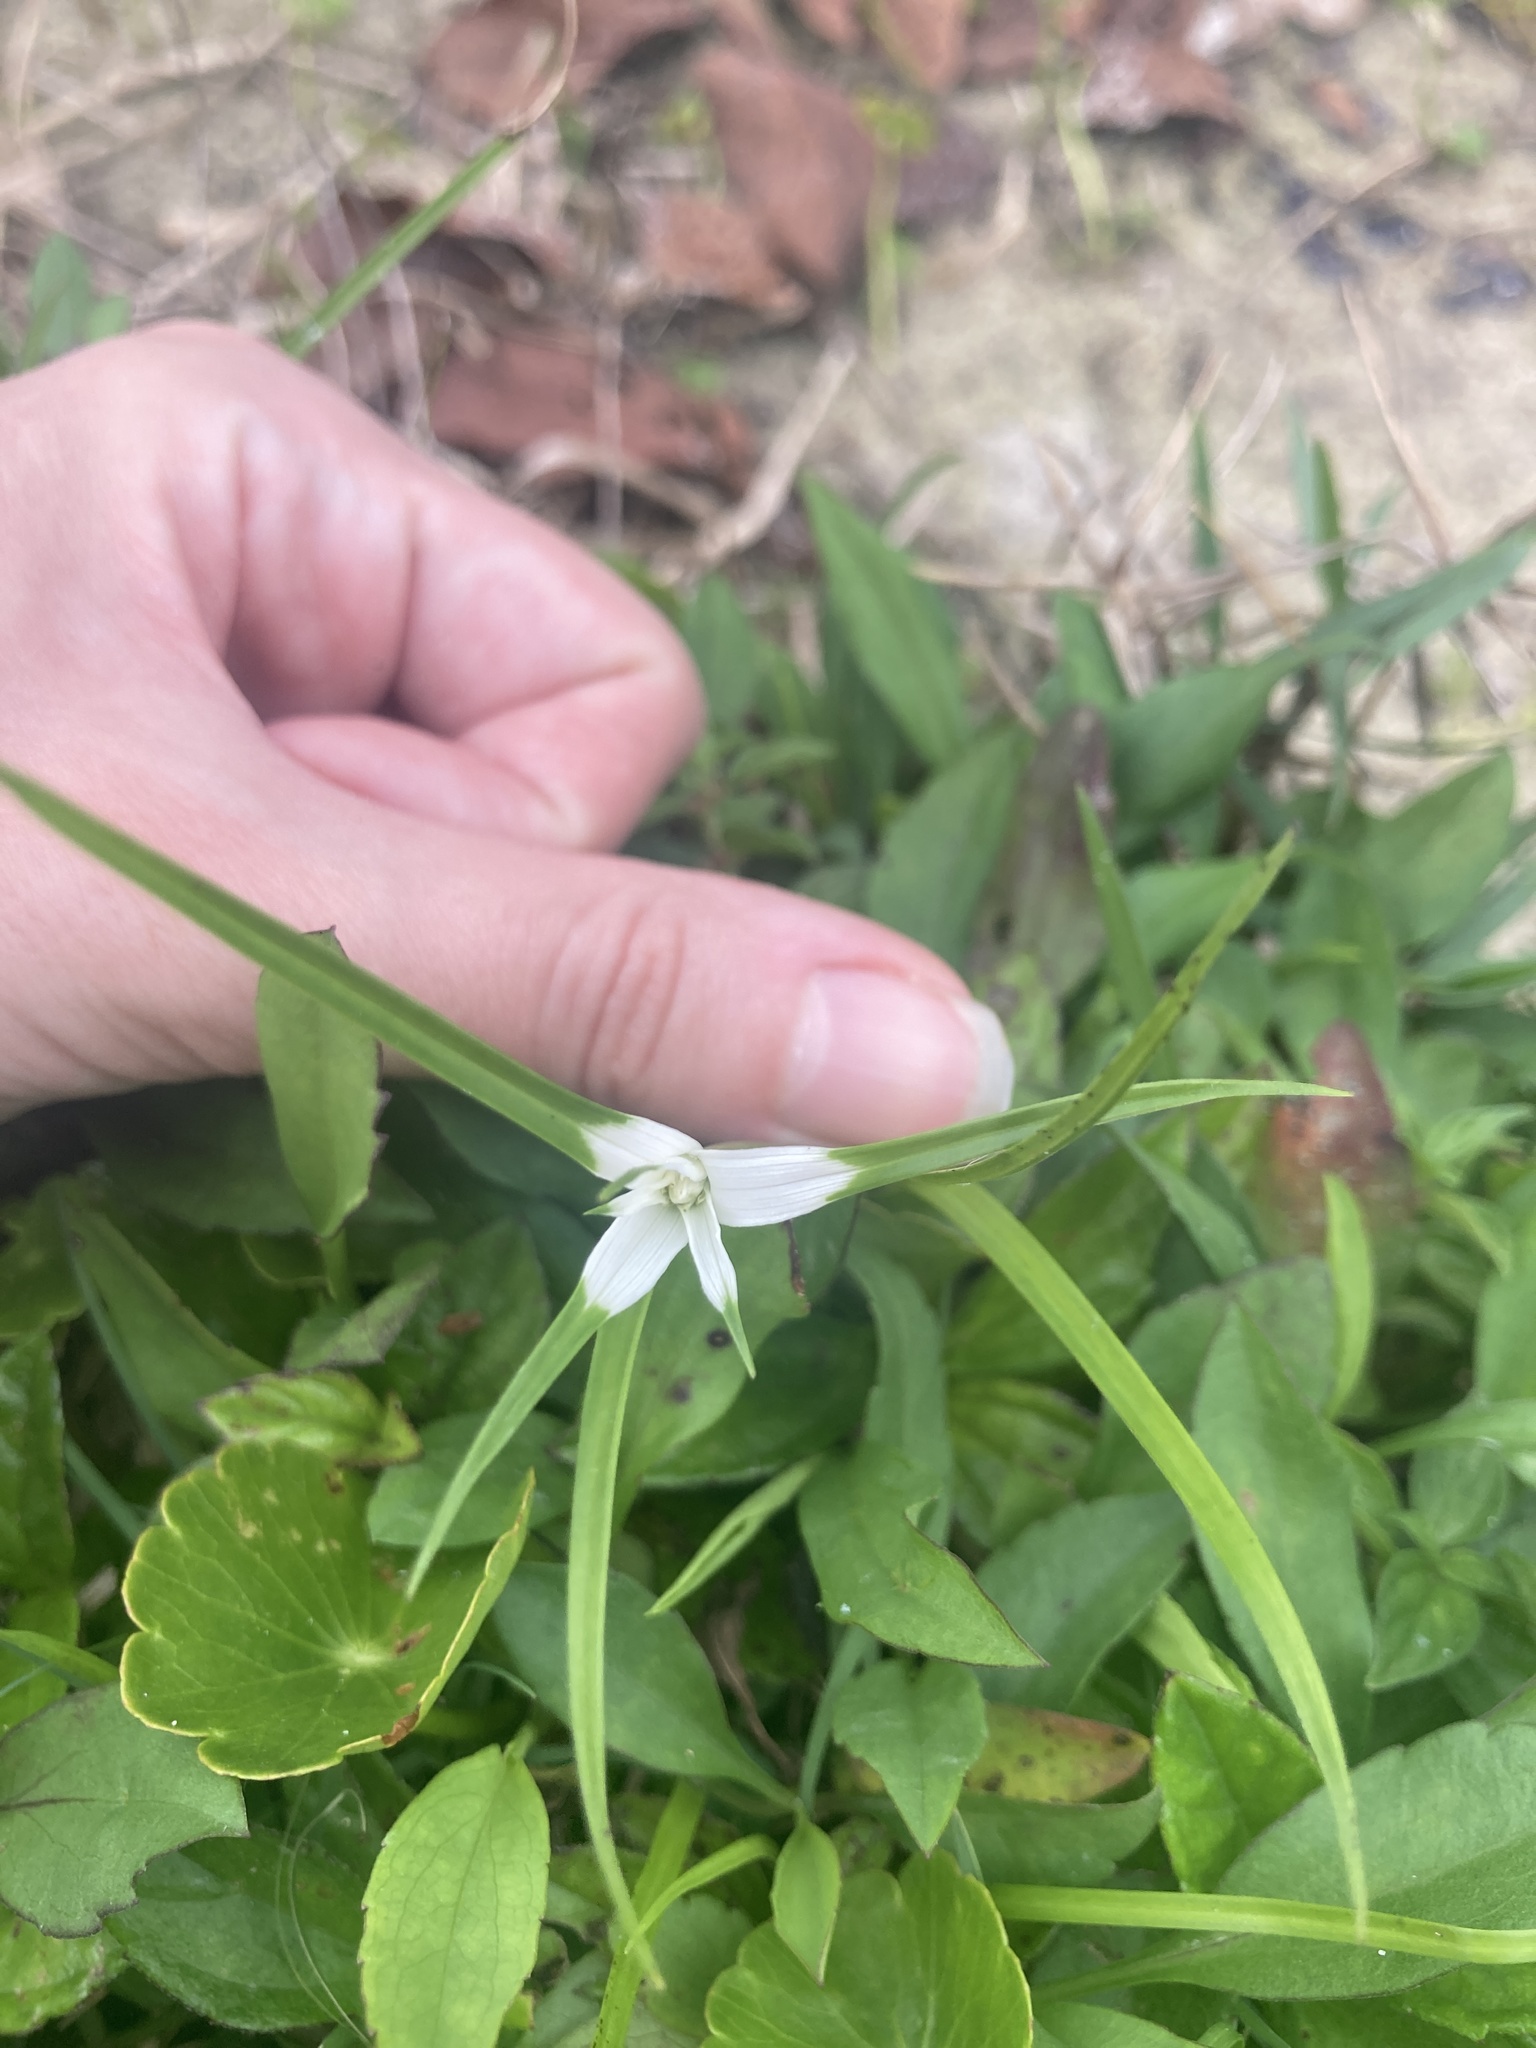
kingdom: Plantae
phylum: Tracheophyta
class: Liliopsida
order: Poales
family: Cyperaceae
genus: Rhynchospora
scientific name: Rhynchospora colorata
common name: Star sedge
